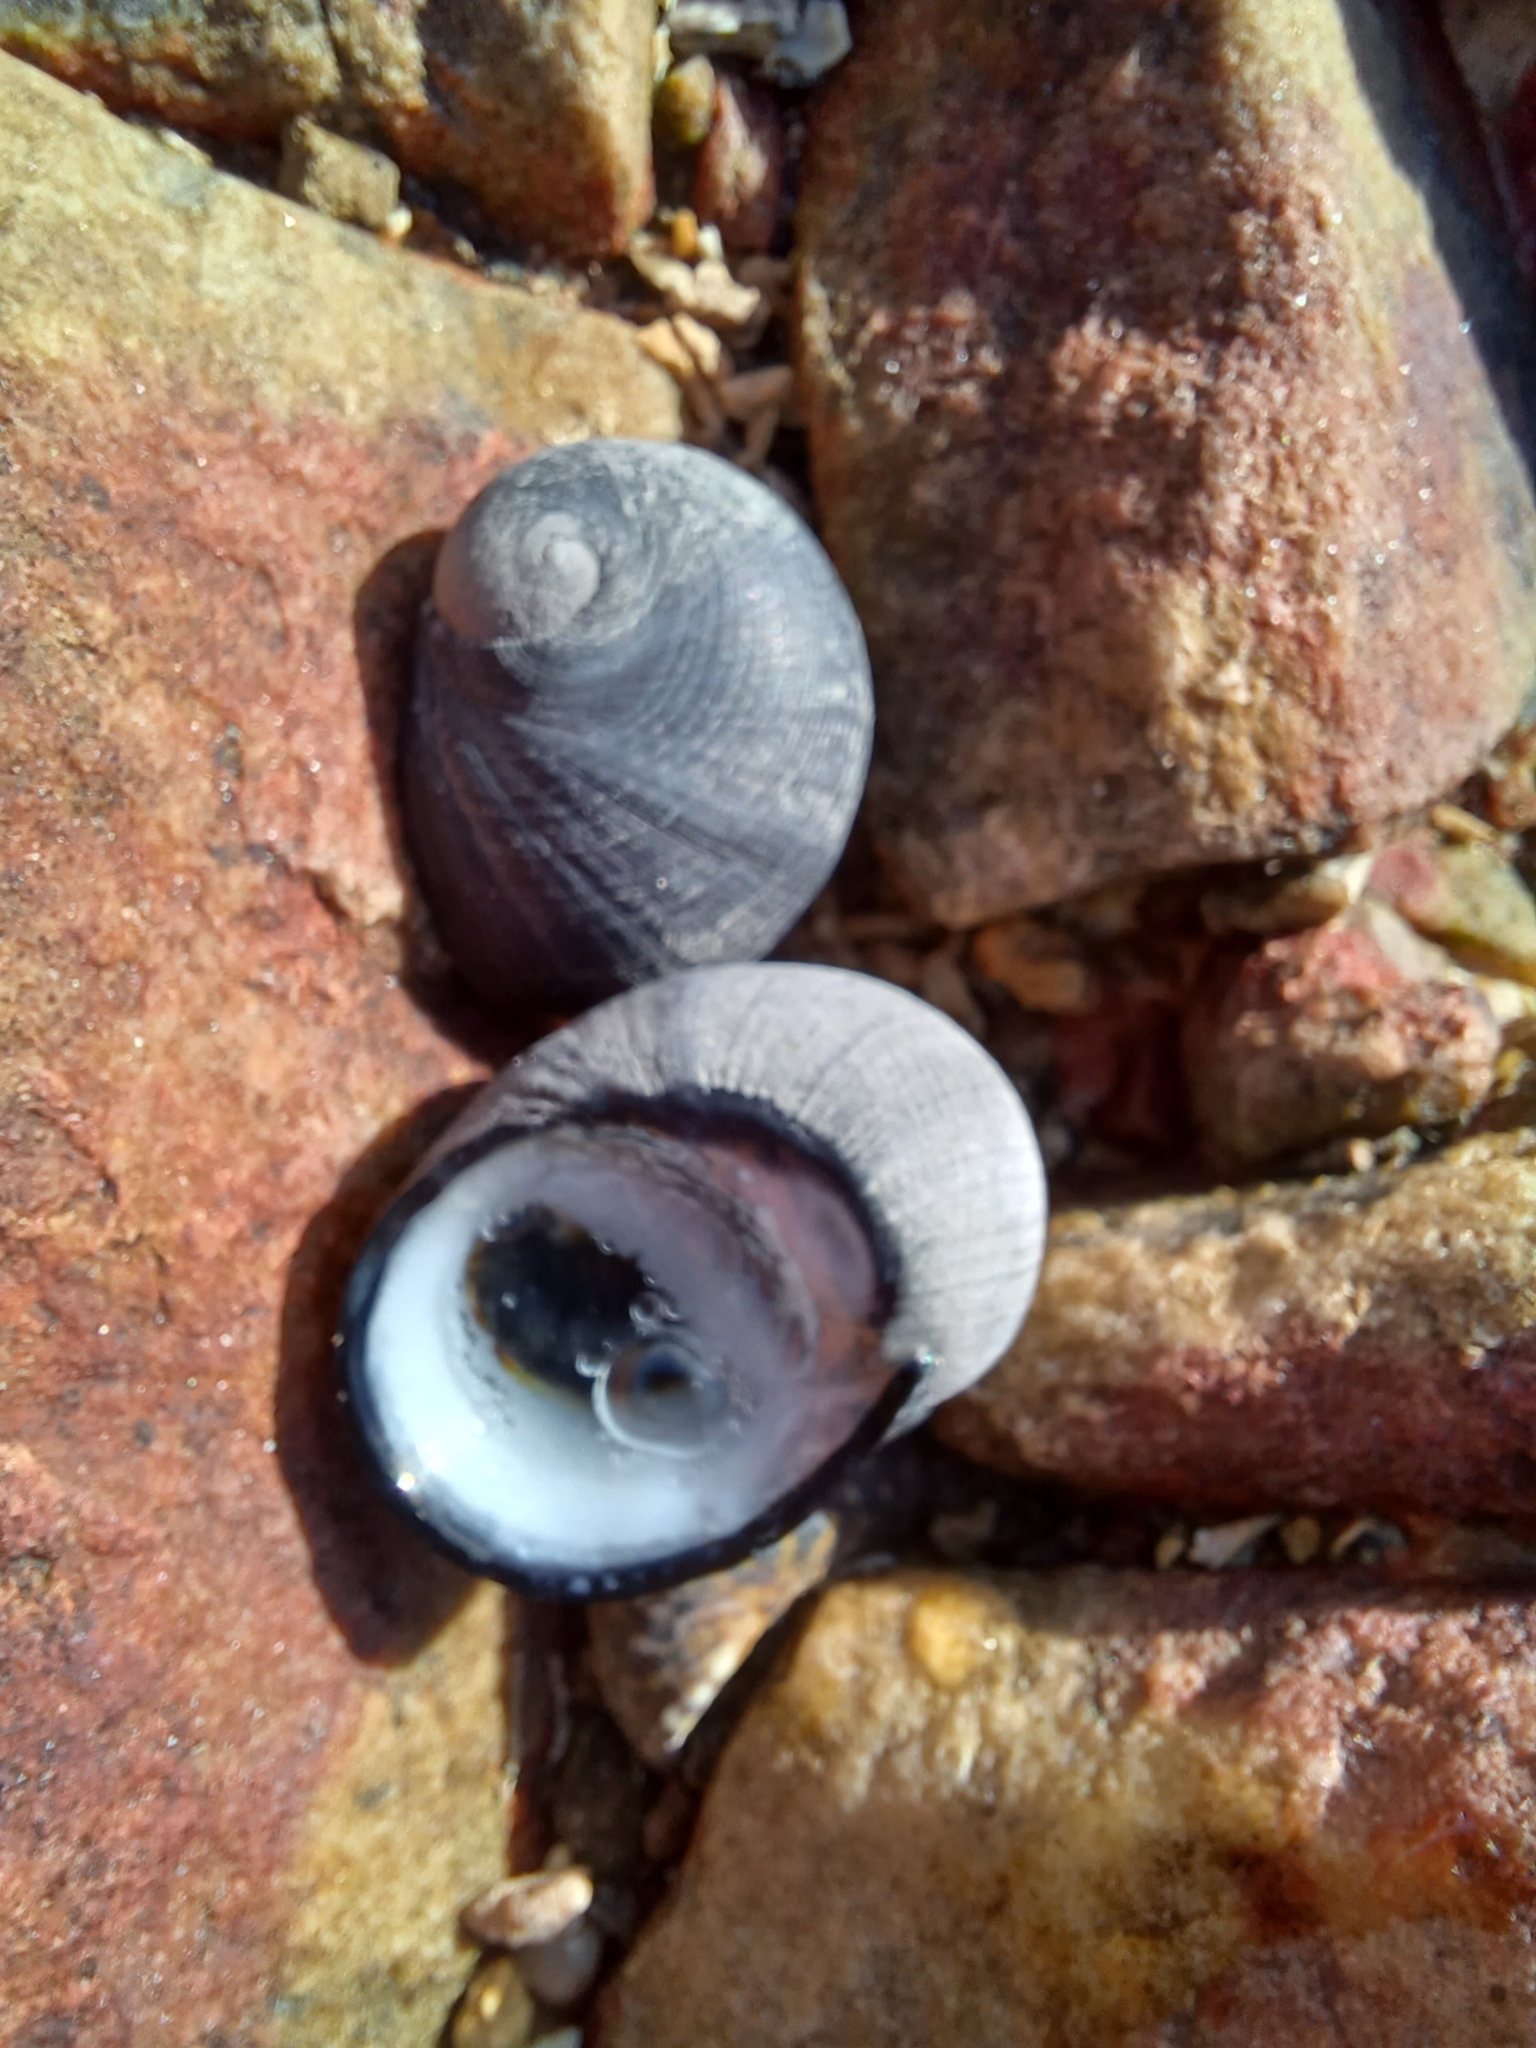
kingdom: Animalia
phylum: Mollusca
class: Gastropoda
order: Cycloneritida
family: Neritidae
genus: Nerita
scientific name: Nerita atramentosa
